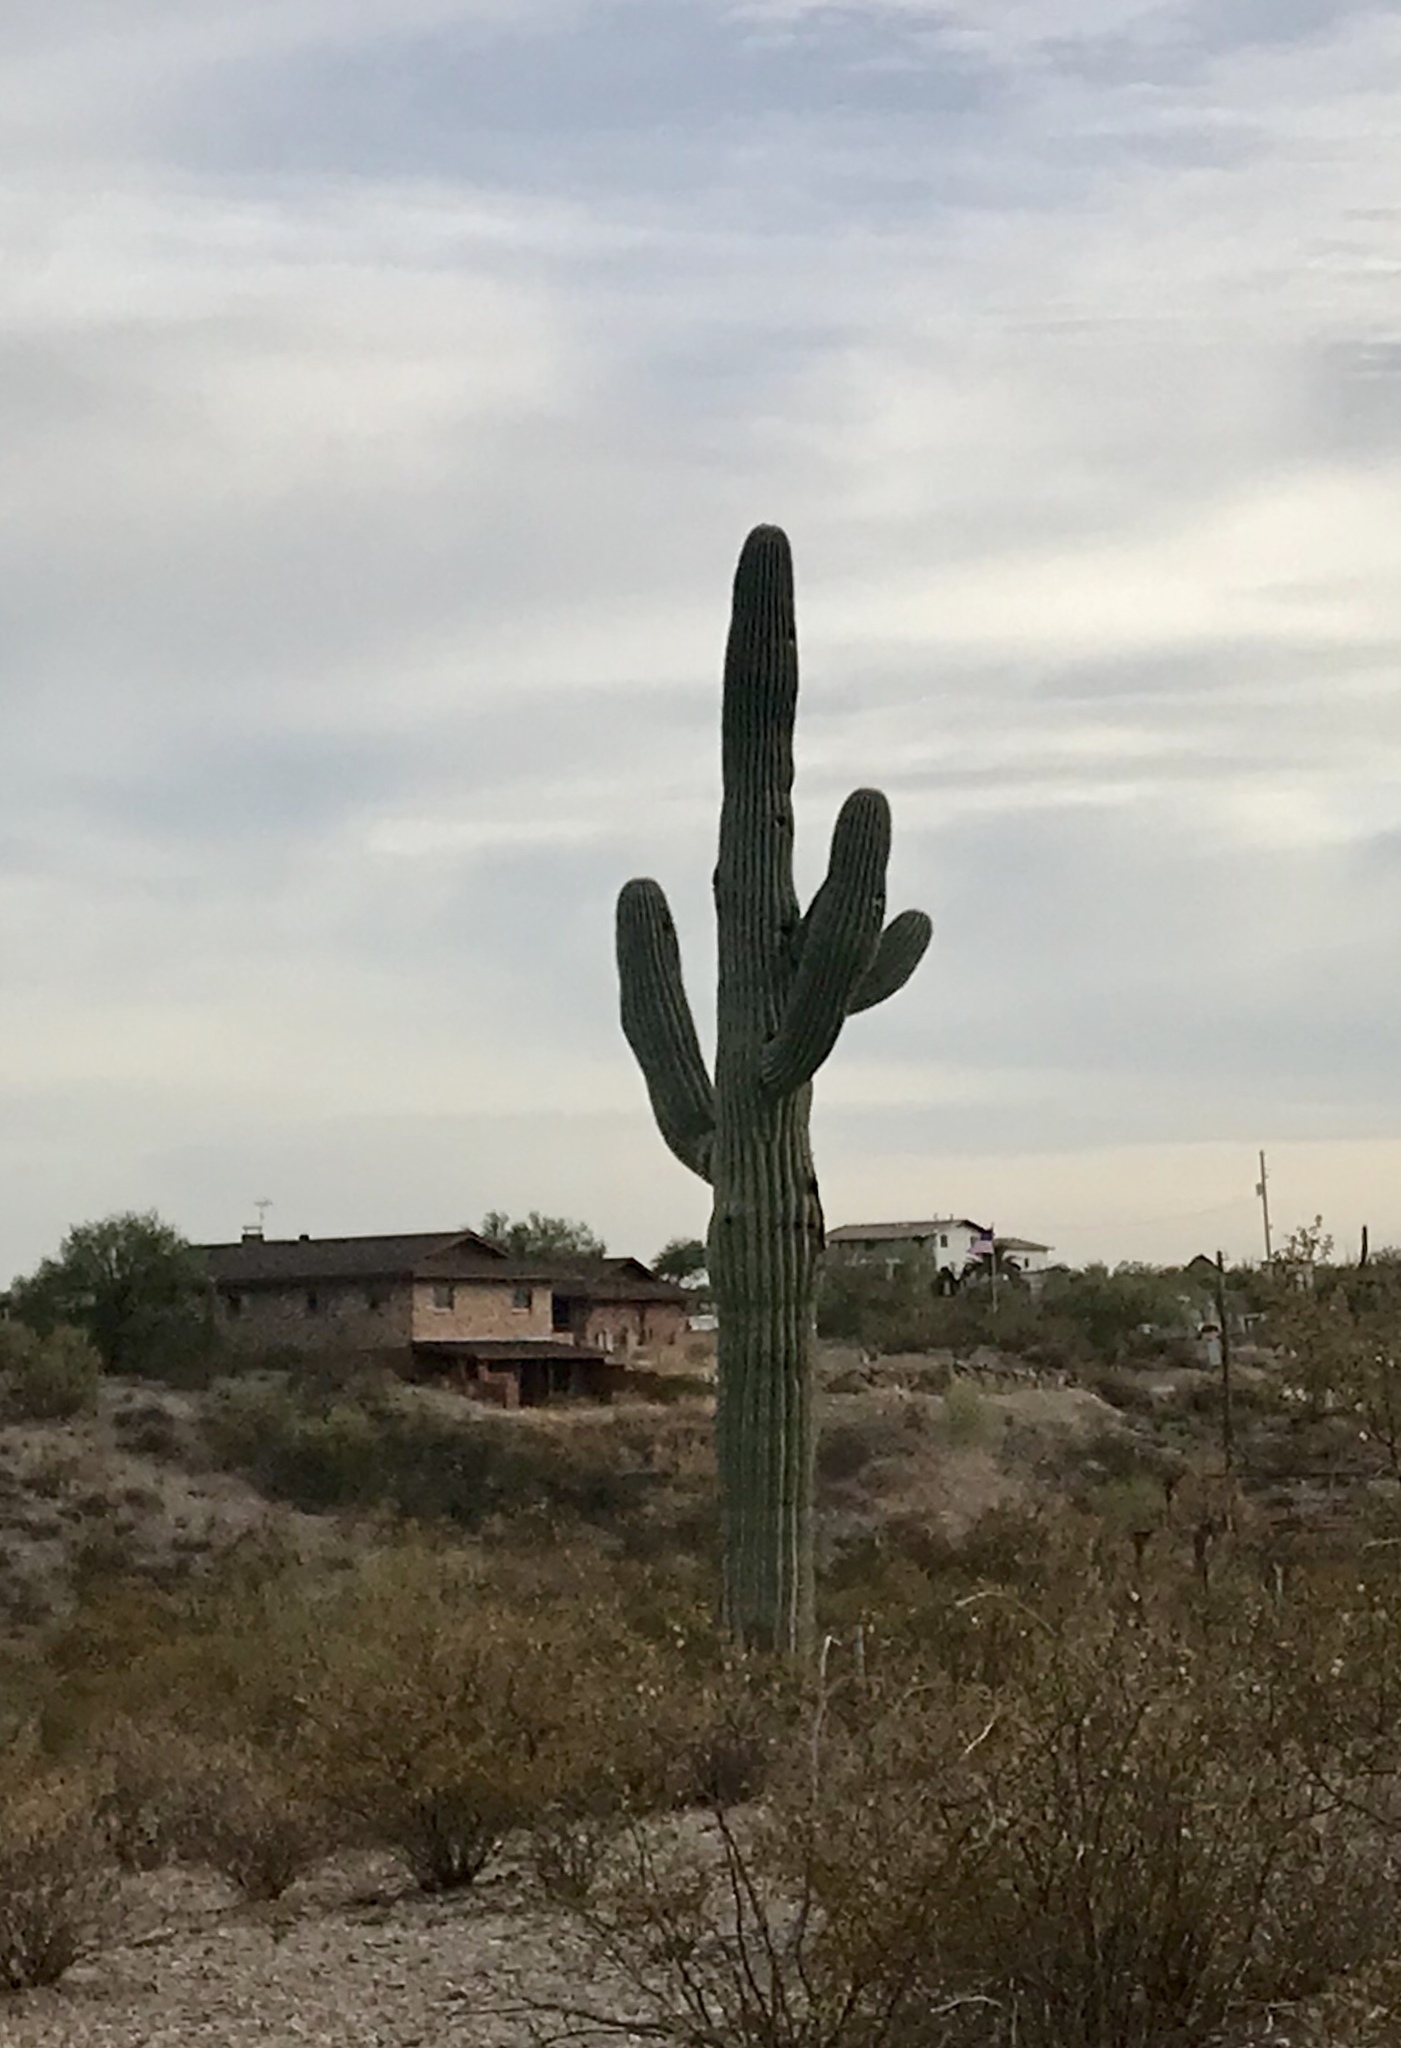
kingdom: Plantae
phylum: Tracheophyta
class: Magnoliopsida
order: Caryophyllales
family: Cactaceae
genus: Carnegiea
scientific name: Carnegiea gigantea
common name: Saguaro
